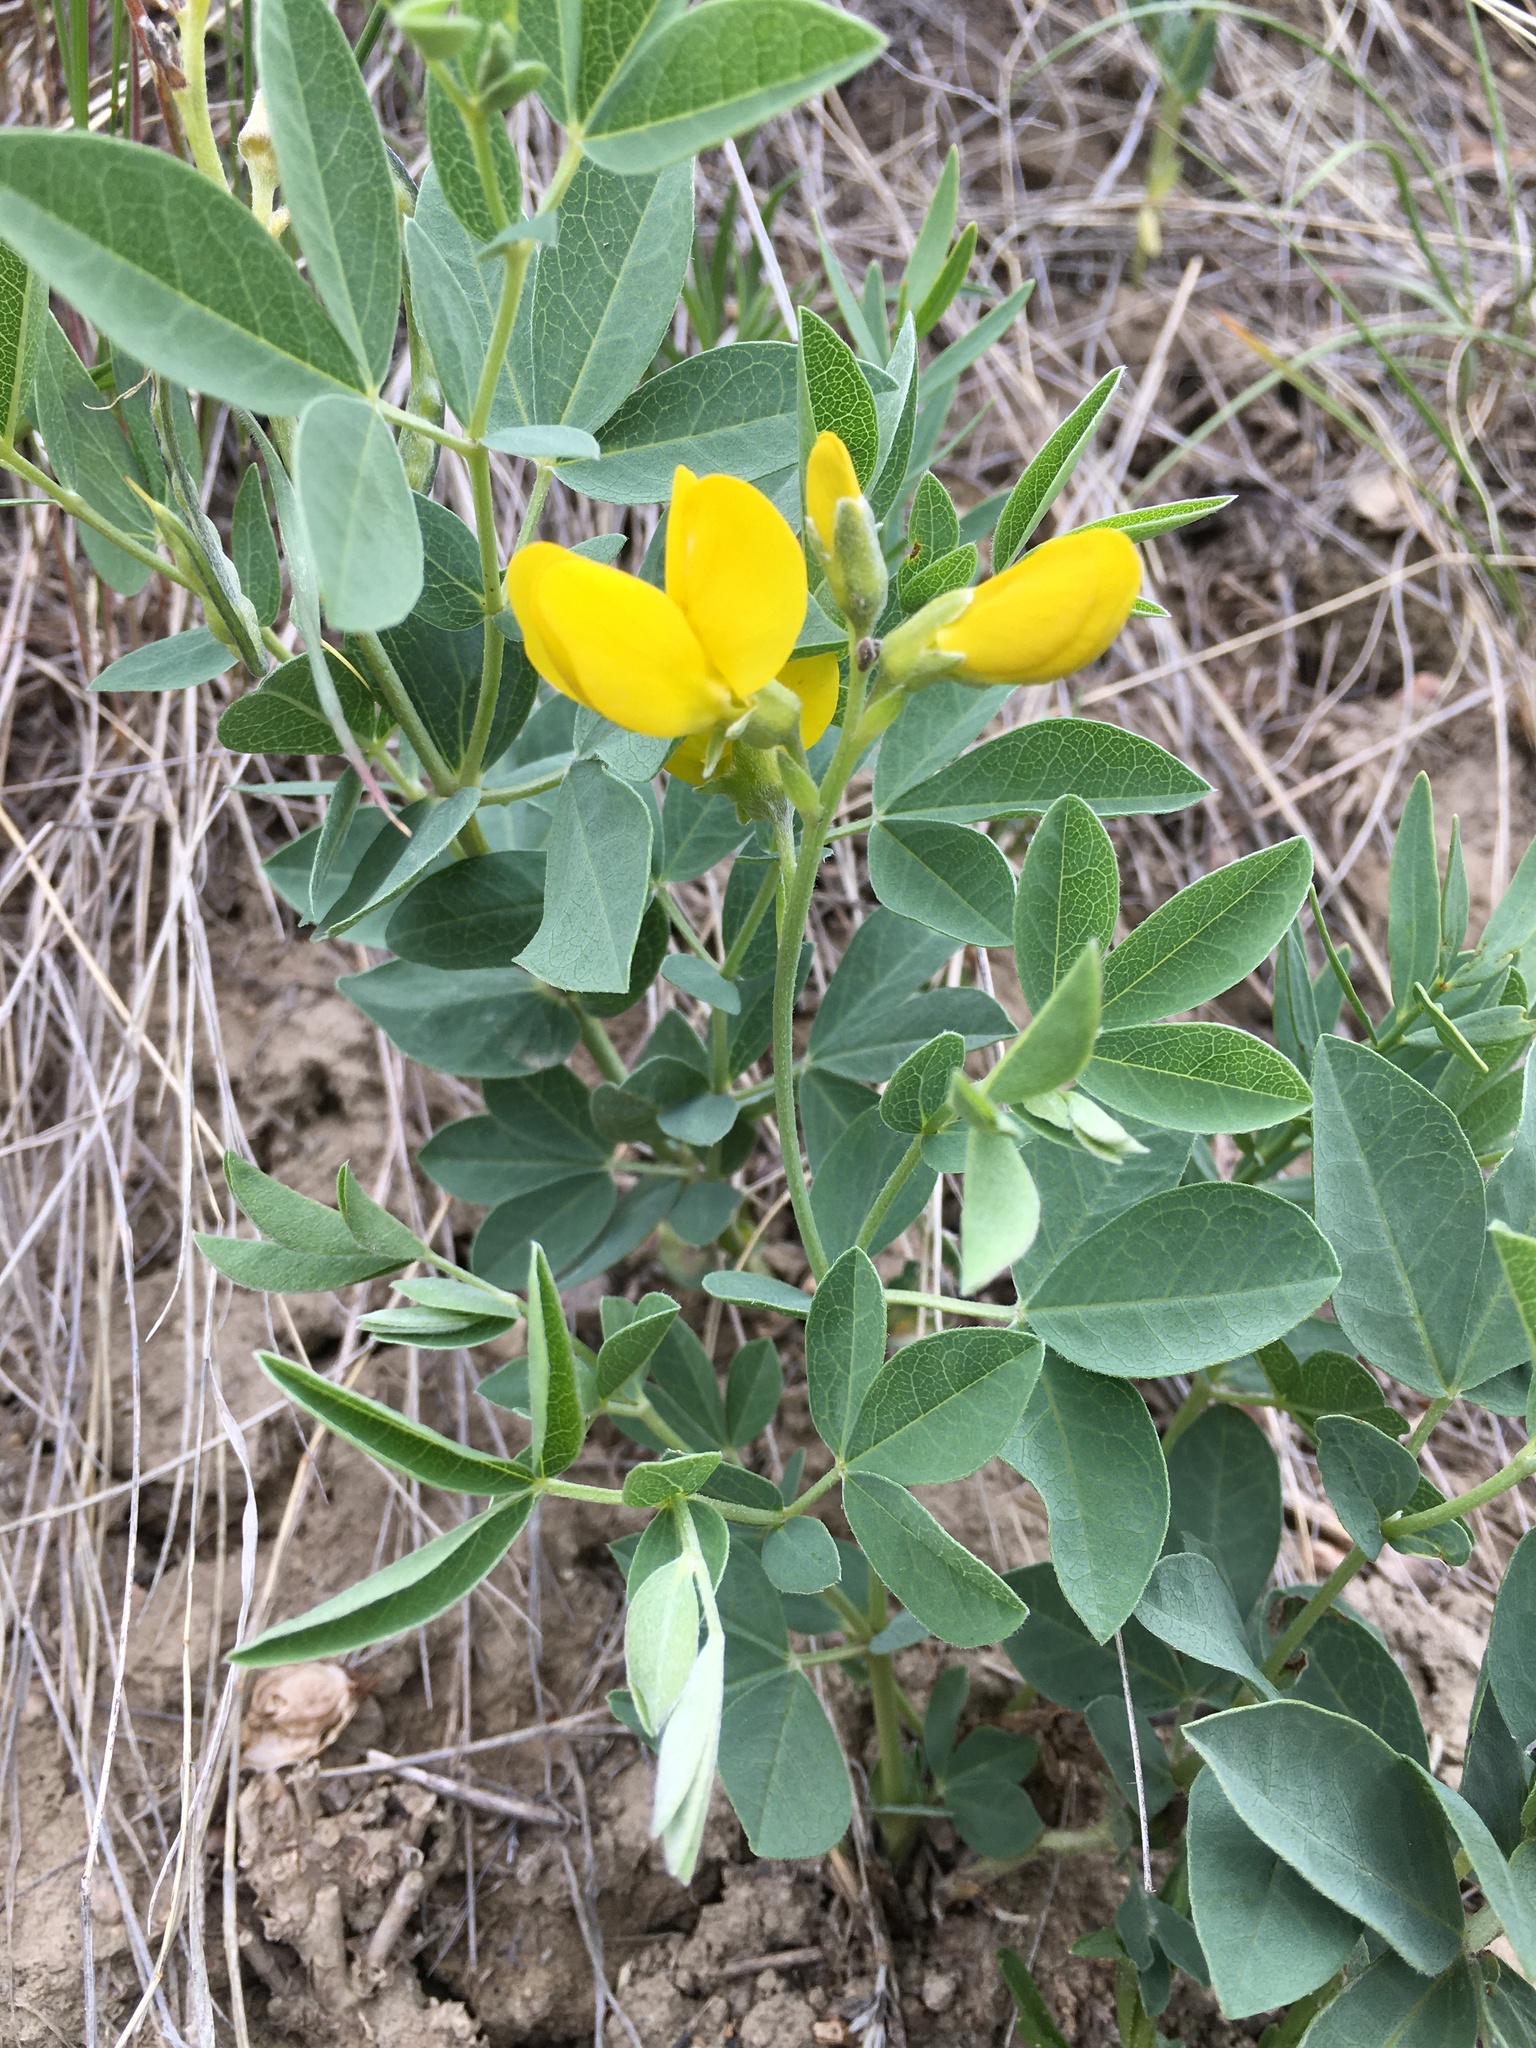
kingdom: Plantae
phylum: Tracheophyta
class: Magnoliopsida
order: Fabales
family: Fabaceae
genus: Thermopsis
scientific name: Thermopsis rhombifolia
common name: Circle-pod-pea
